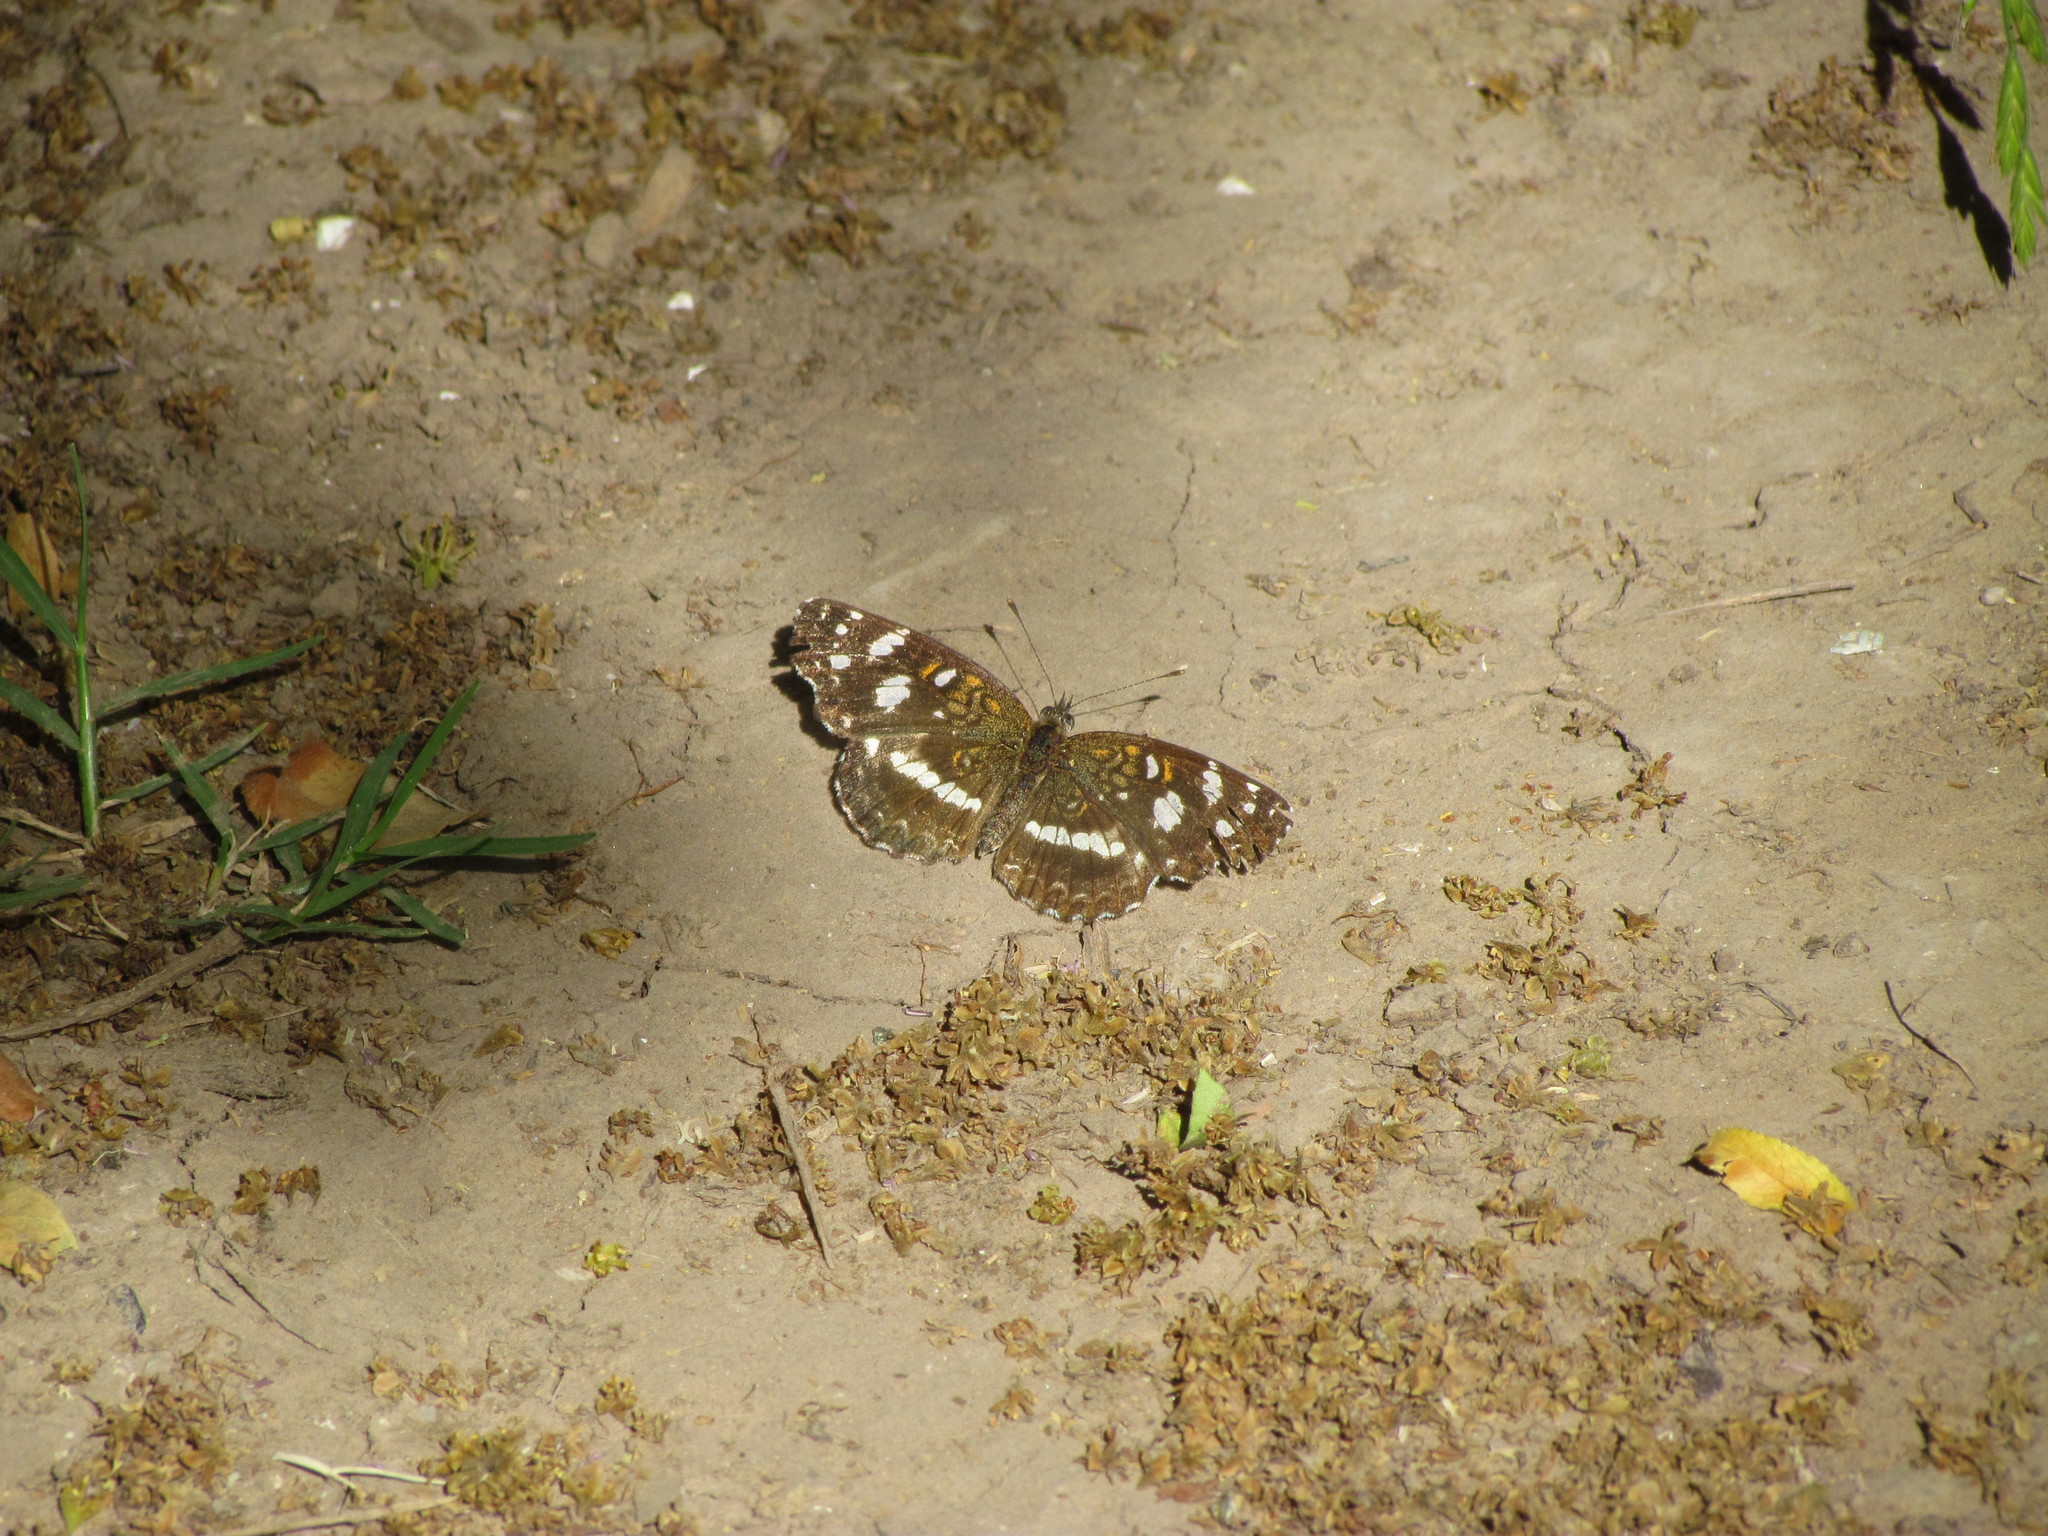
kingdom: Animalia
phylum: Arthropoda
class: Insecta
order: Lepidoptera
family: Nymphalidae
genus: Ortilia
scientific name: Ortilia ithra
